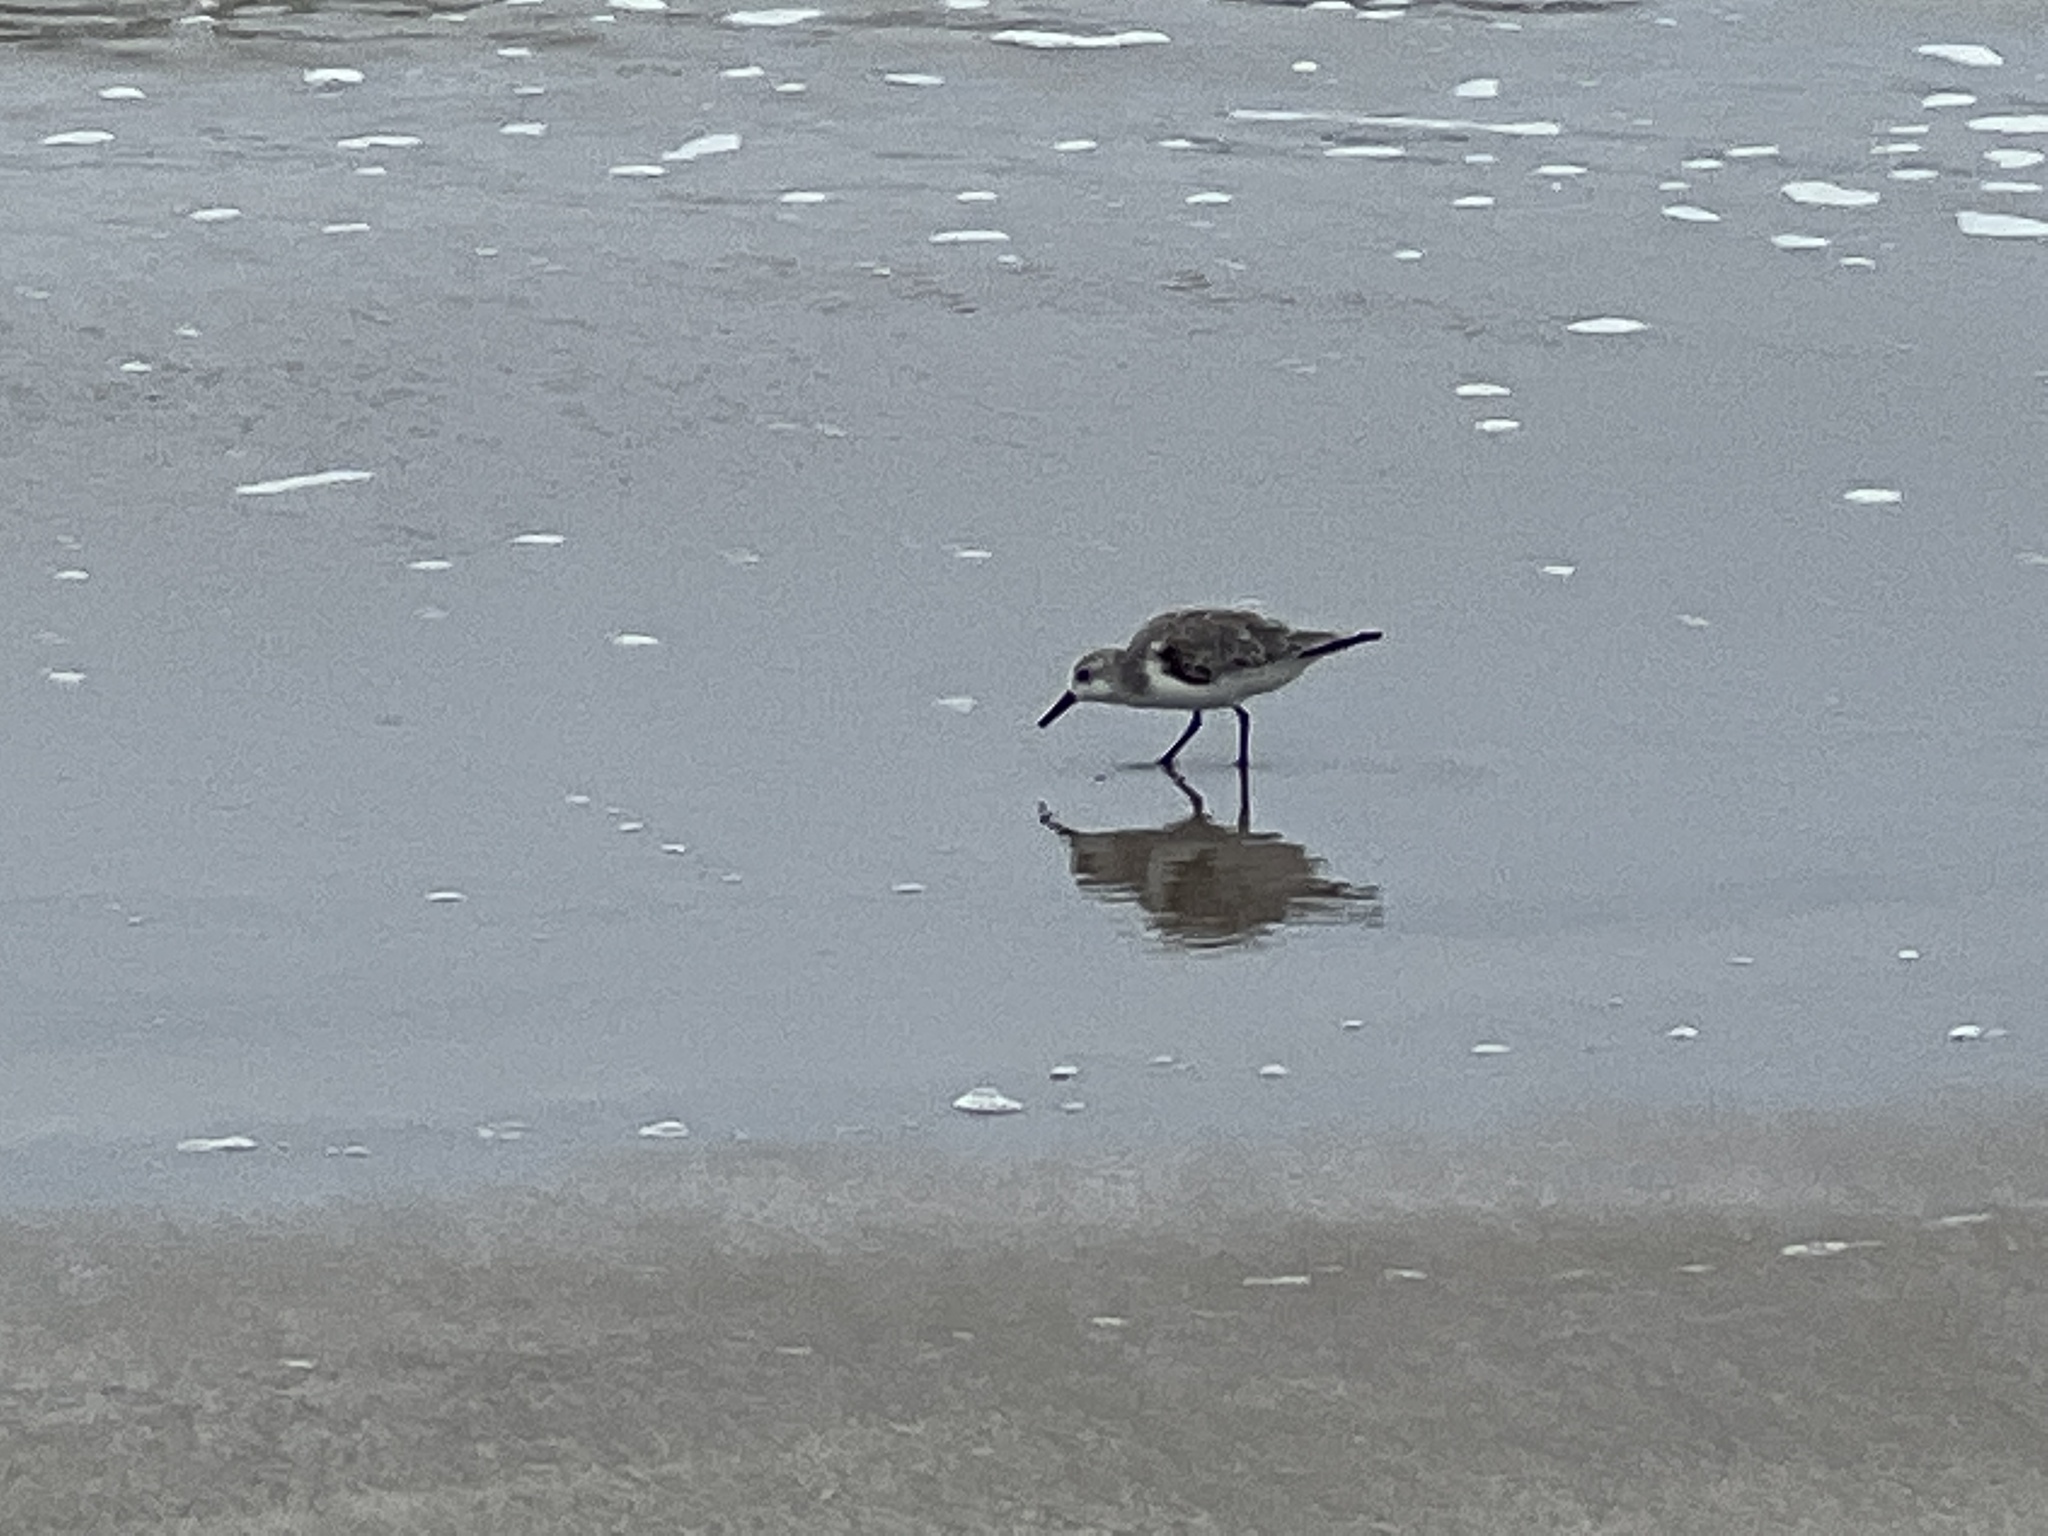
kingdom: Animalia
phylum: Chordata
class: Aves
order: Charadriiformes
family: Scolopacidae
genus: Calidris
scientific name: Calidris alba
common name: Sanderling
